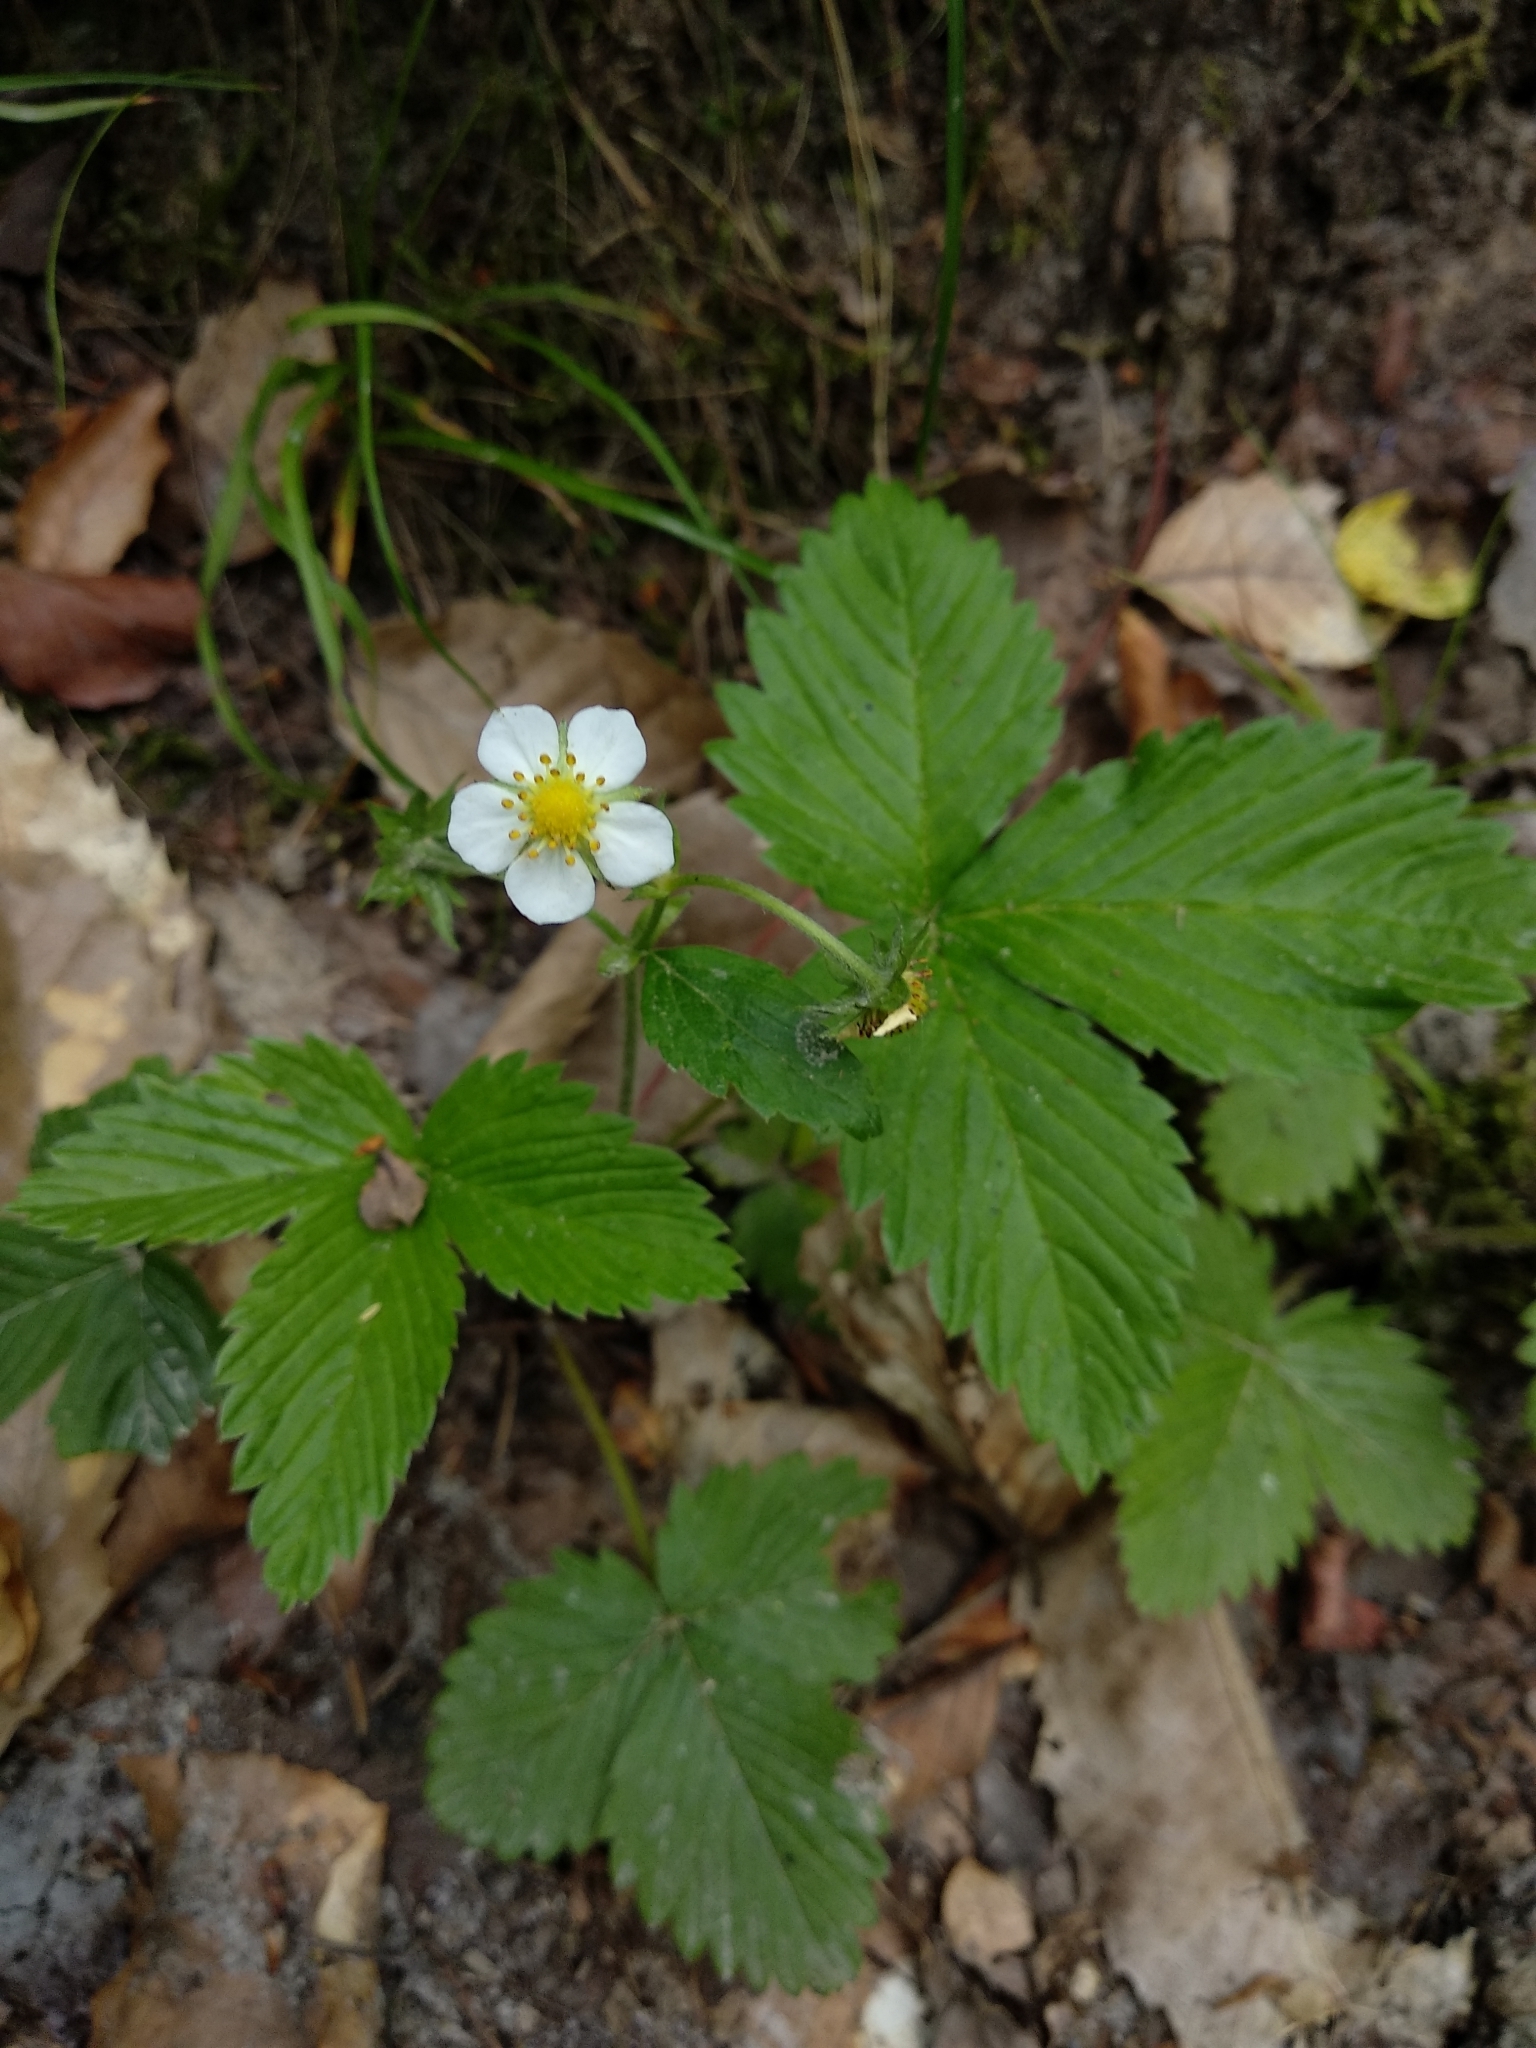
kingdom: Plantae
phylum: Tracheophyta
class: Magnoliopsida
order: Rosales
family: Rosaceae
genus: Fragaria
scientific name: Fragaria vesca
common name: Wild strawberry
